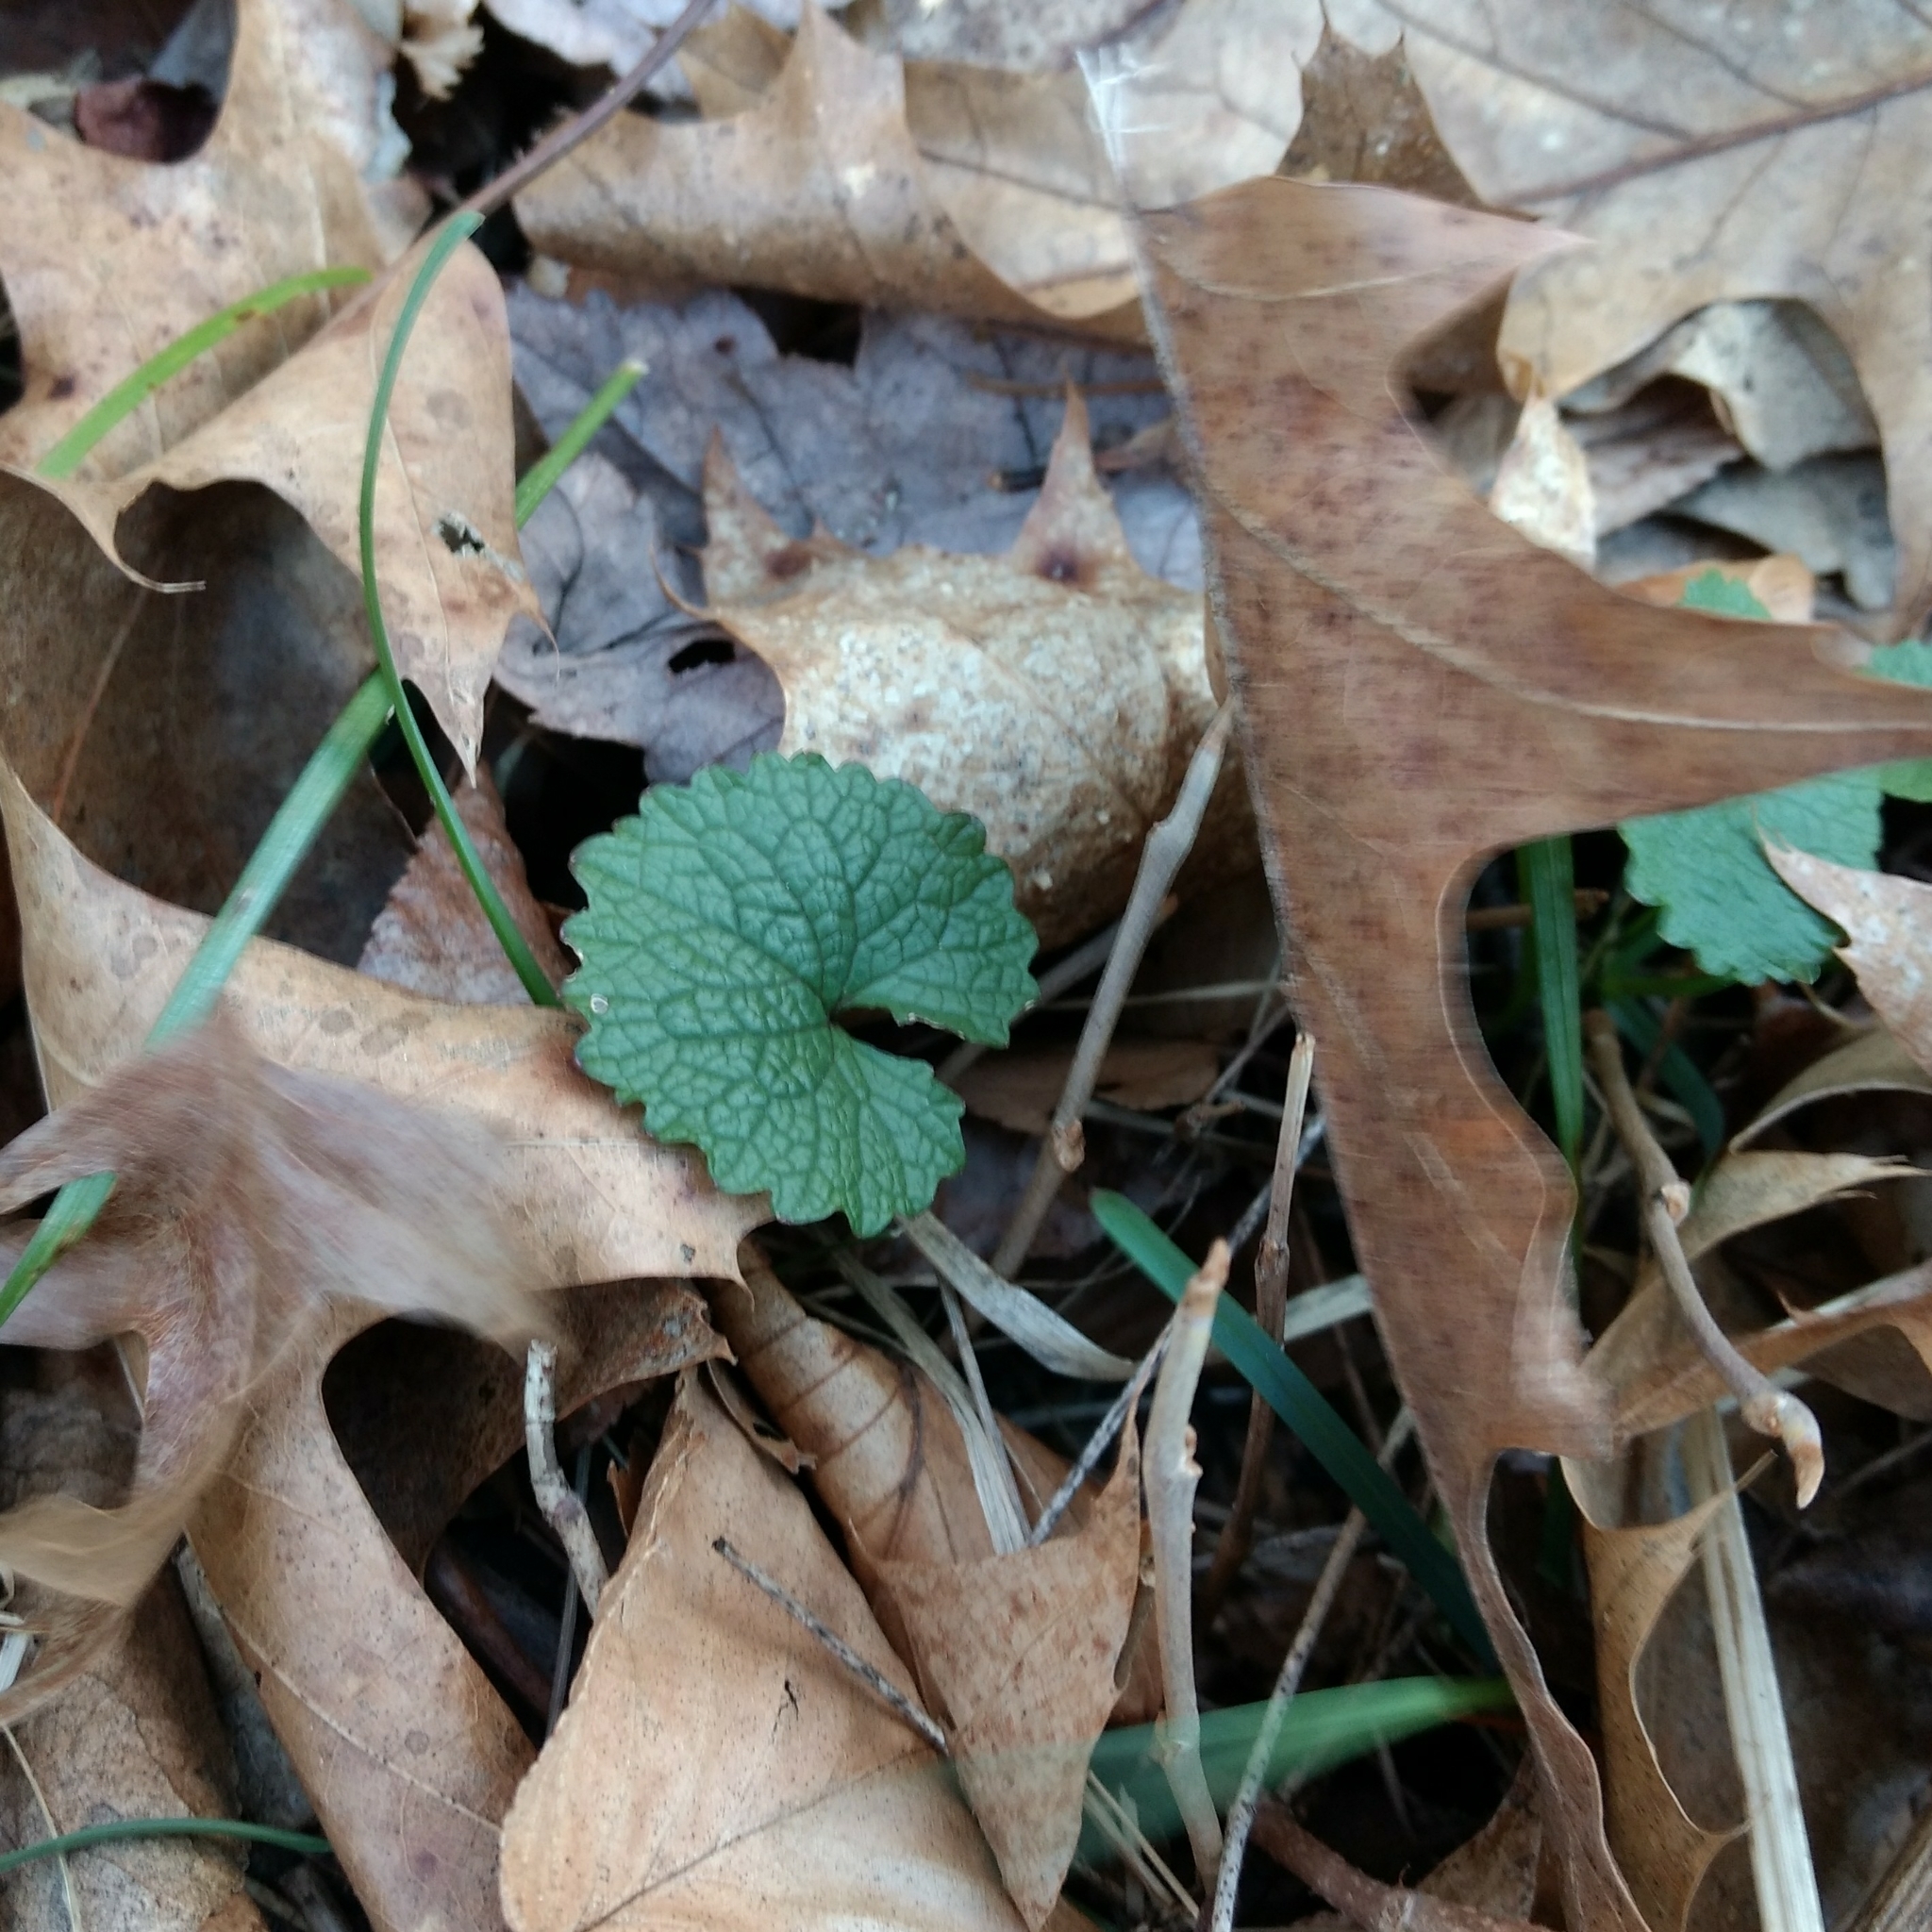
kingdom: Plantae
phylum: Tracheophyta
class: Magnoliopsida
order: Brassicales
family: Brassicaceae
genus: Alliaria
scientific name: Alliaria petiolata
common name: Garlic mustard
